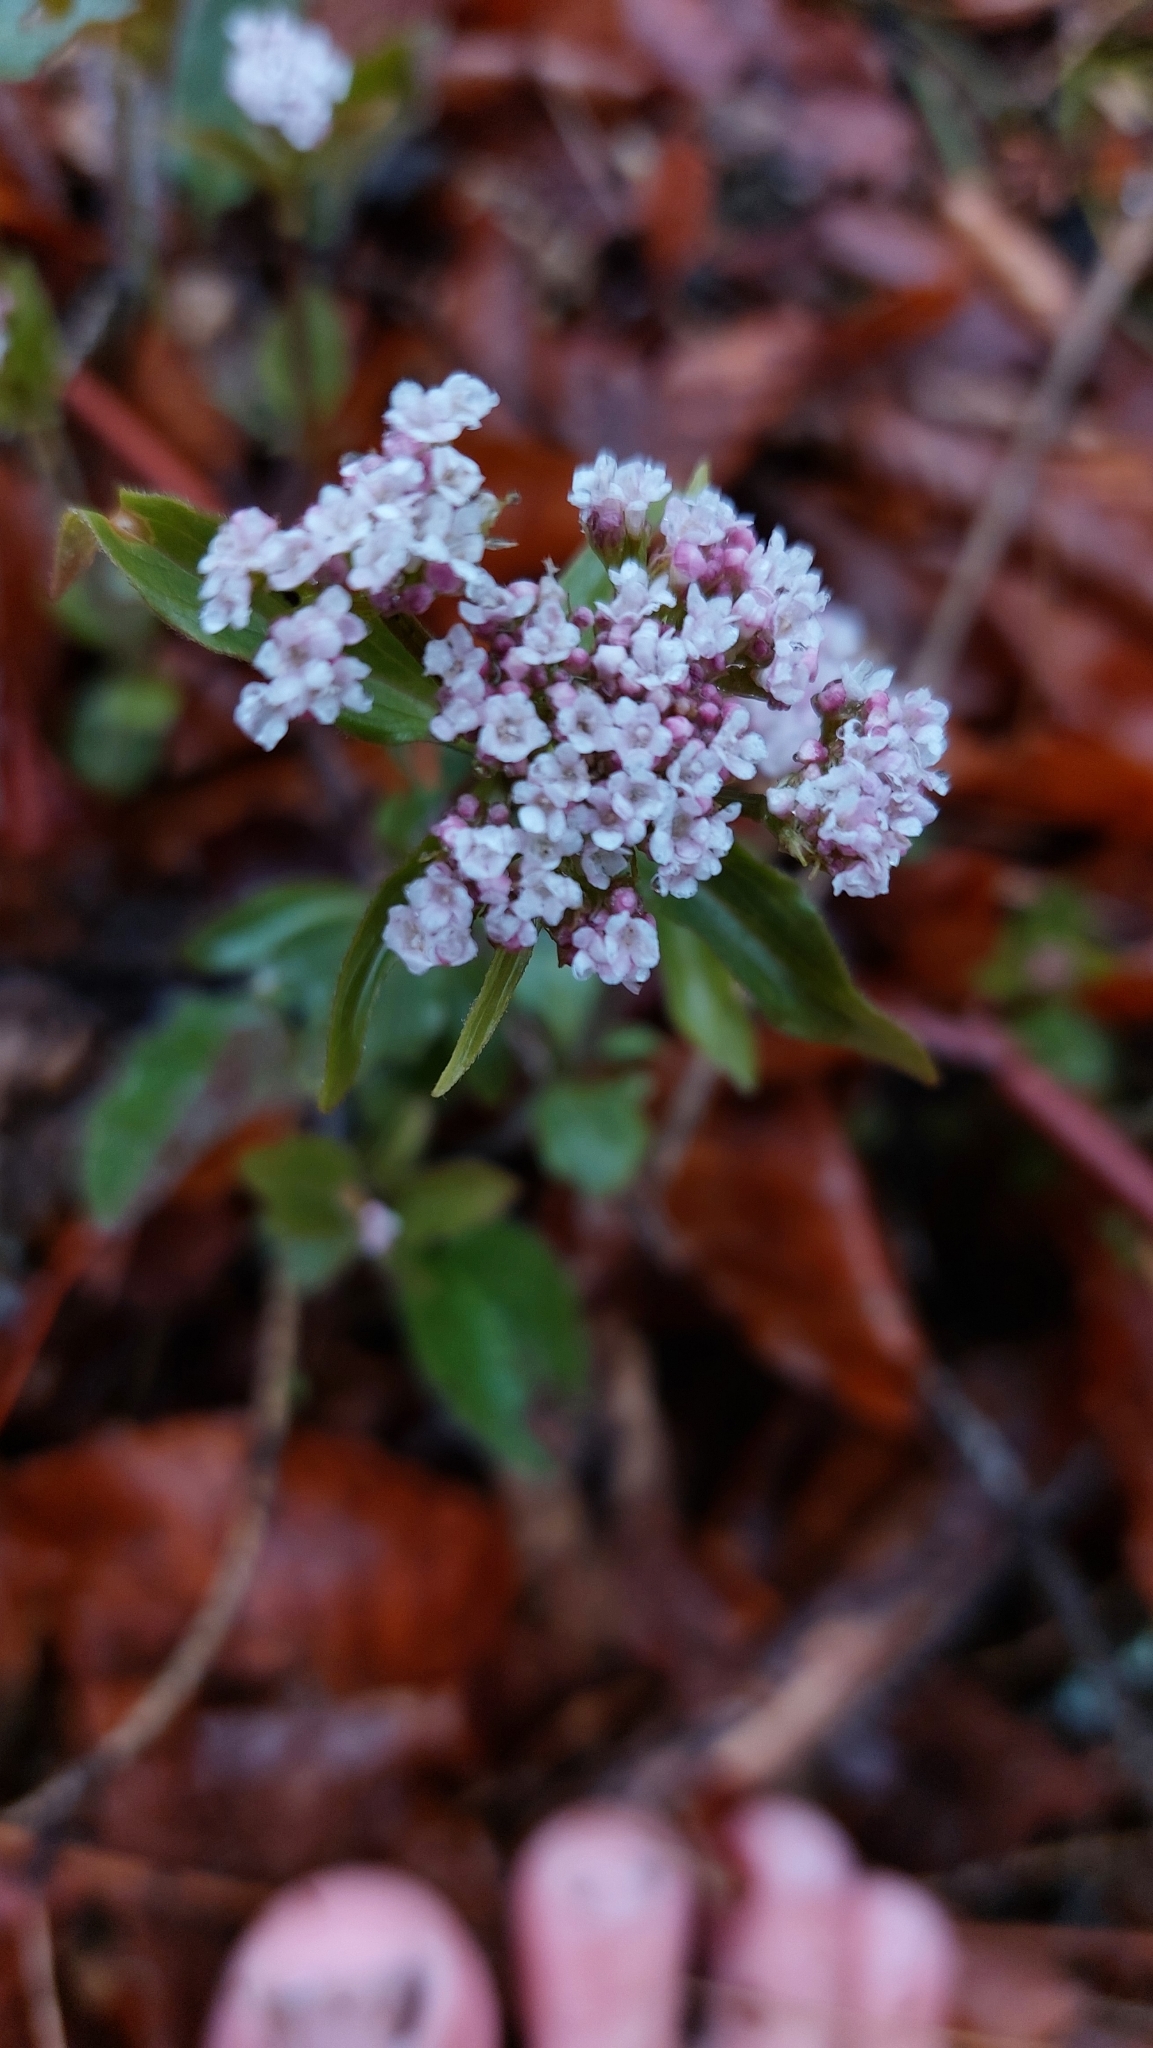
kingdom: Plantae
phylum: Tracheophyta
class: Magnoliopsida
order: Dipsacales
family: Caprifoliaceae
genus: Valeriana
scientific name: Valeriana tripteris
